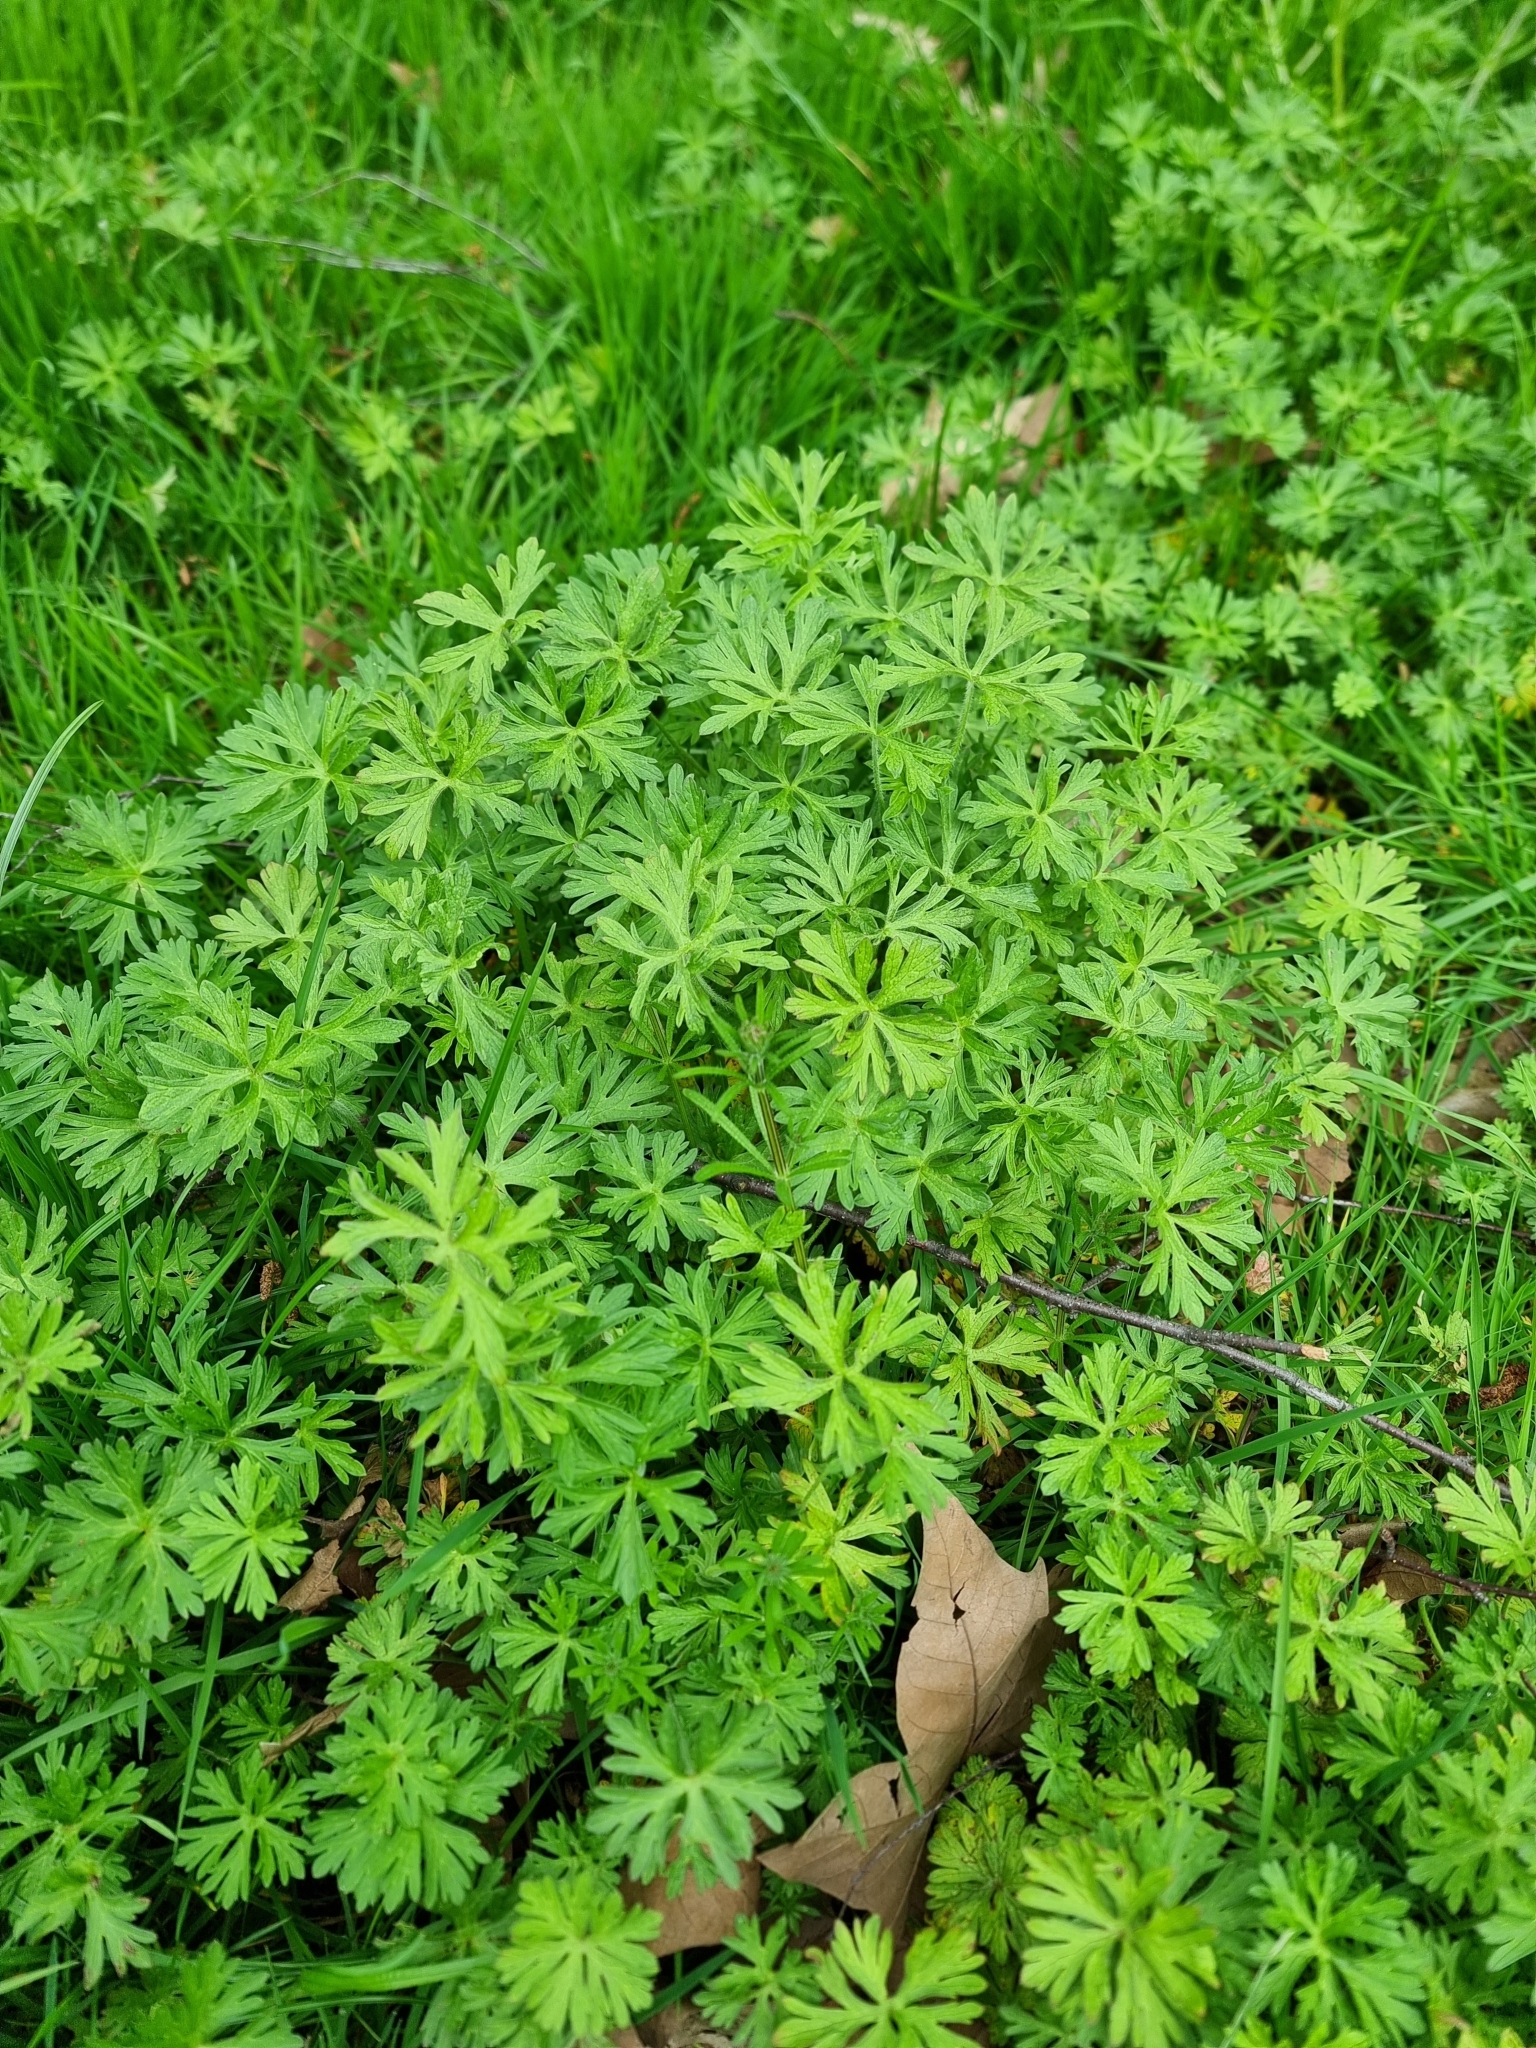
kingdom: Plantae
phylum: Tracheophyta
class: Magnoliopsida
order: Geraniales
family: Geraniaceae
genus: Geranium
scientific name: Geranium dissectum
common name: Cut-leaved crane's-bill
